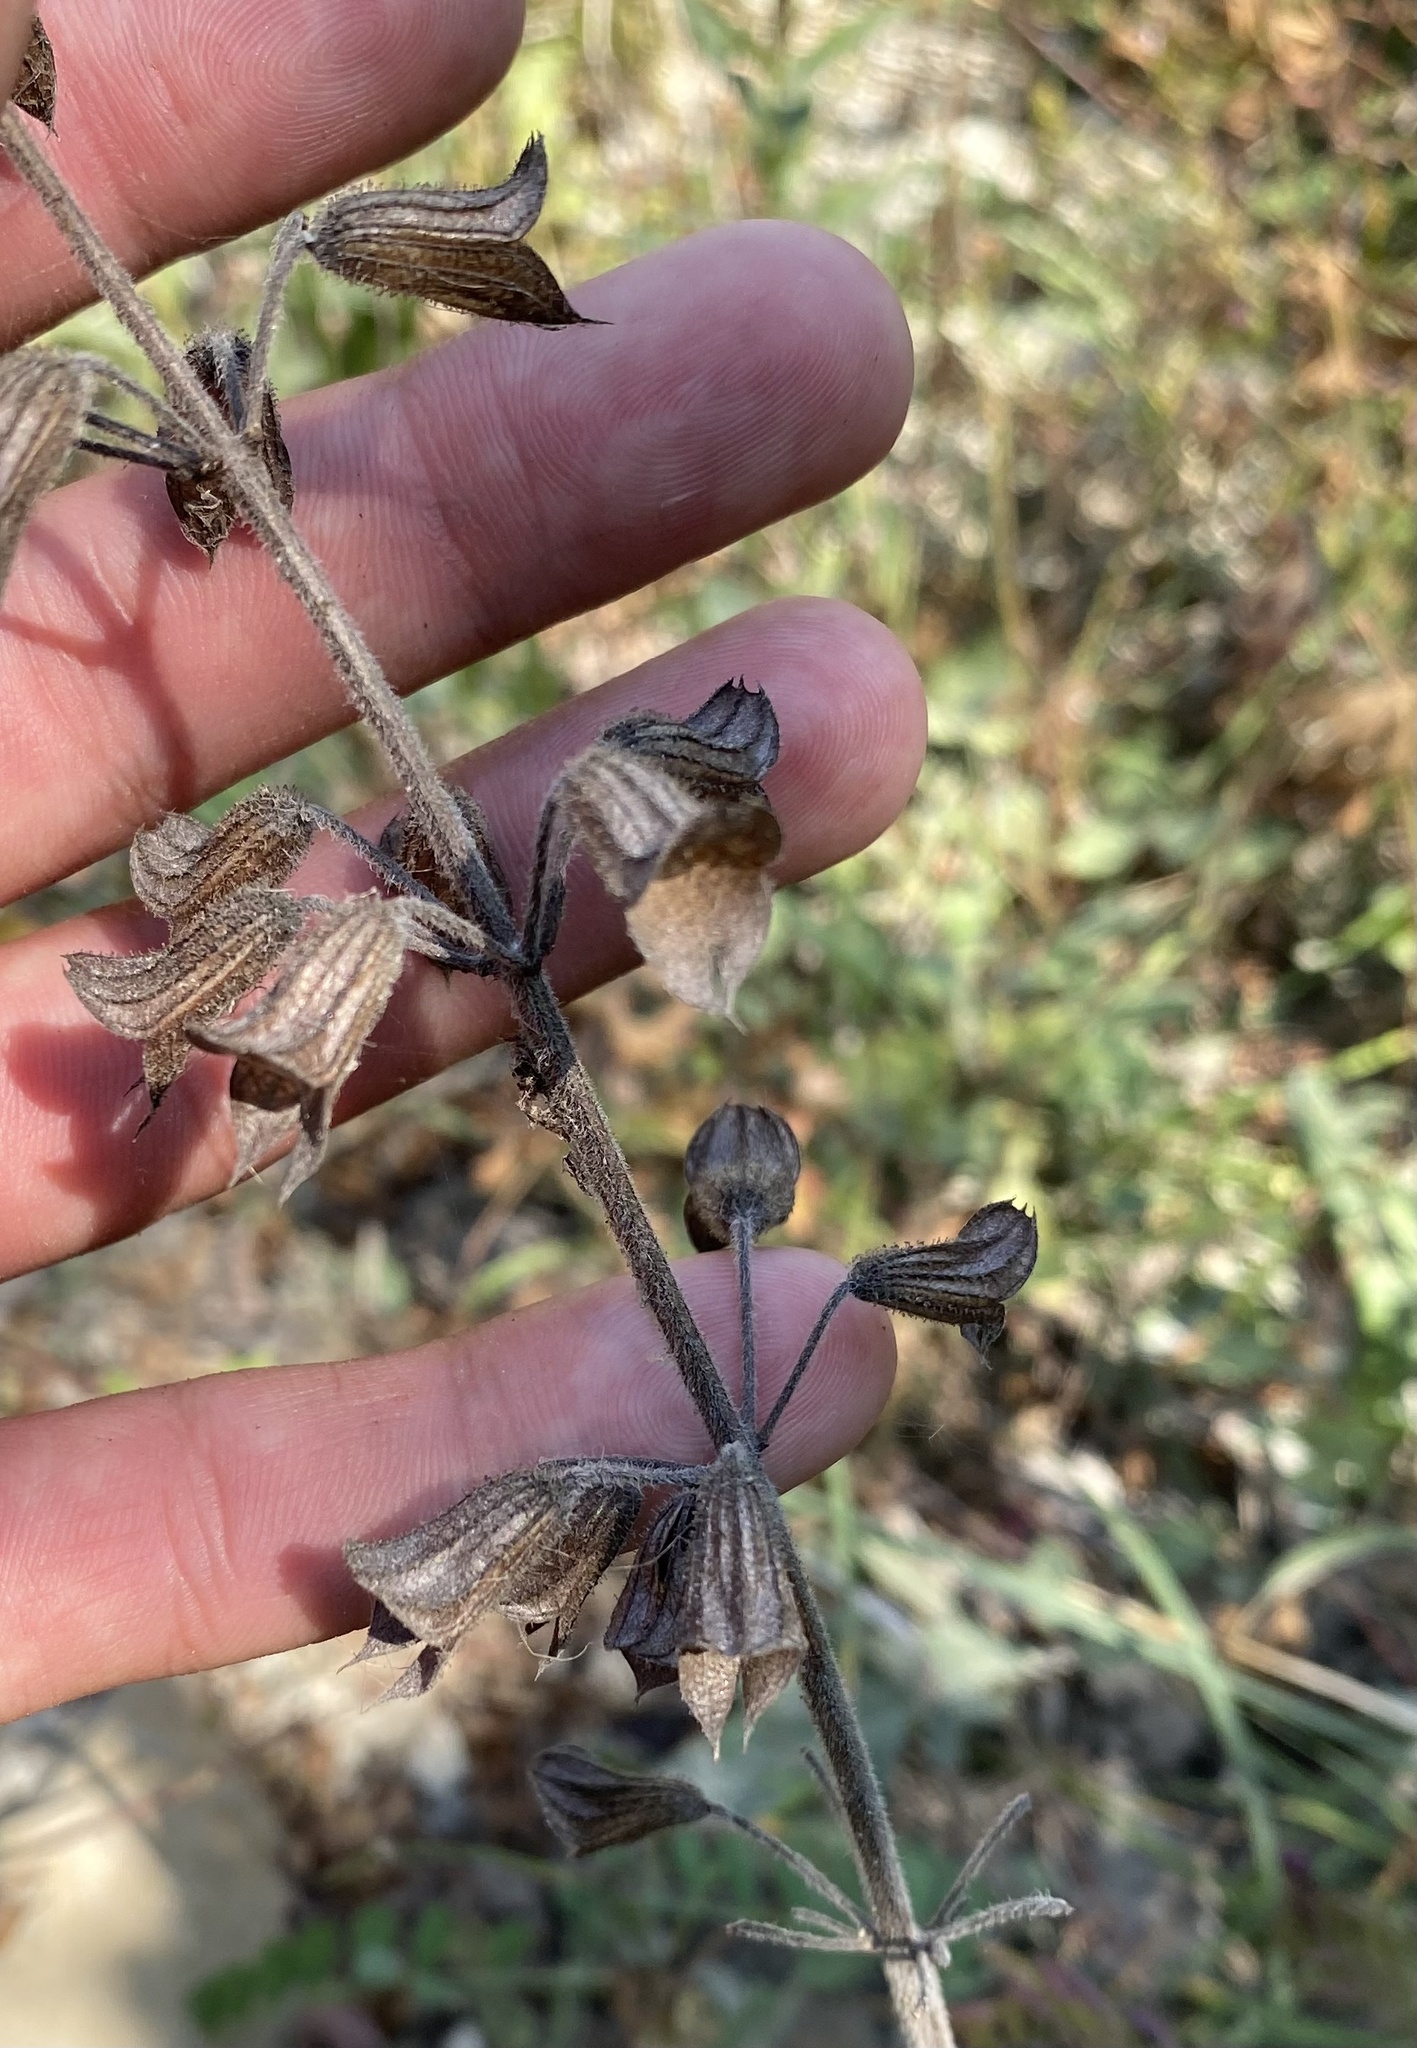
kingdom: Plantae
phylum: Tracheophyta
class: Magnoliopsida
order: Lamiales
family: Lamiaceae
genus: Salvia
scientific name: Salvia ringens
